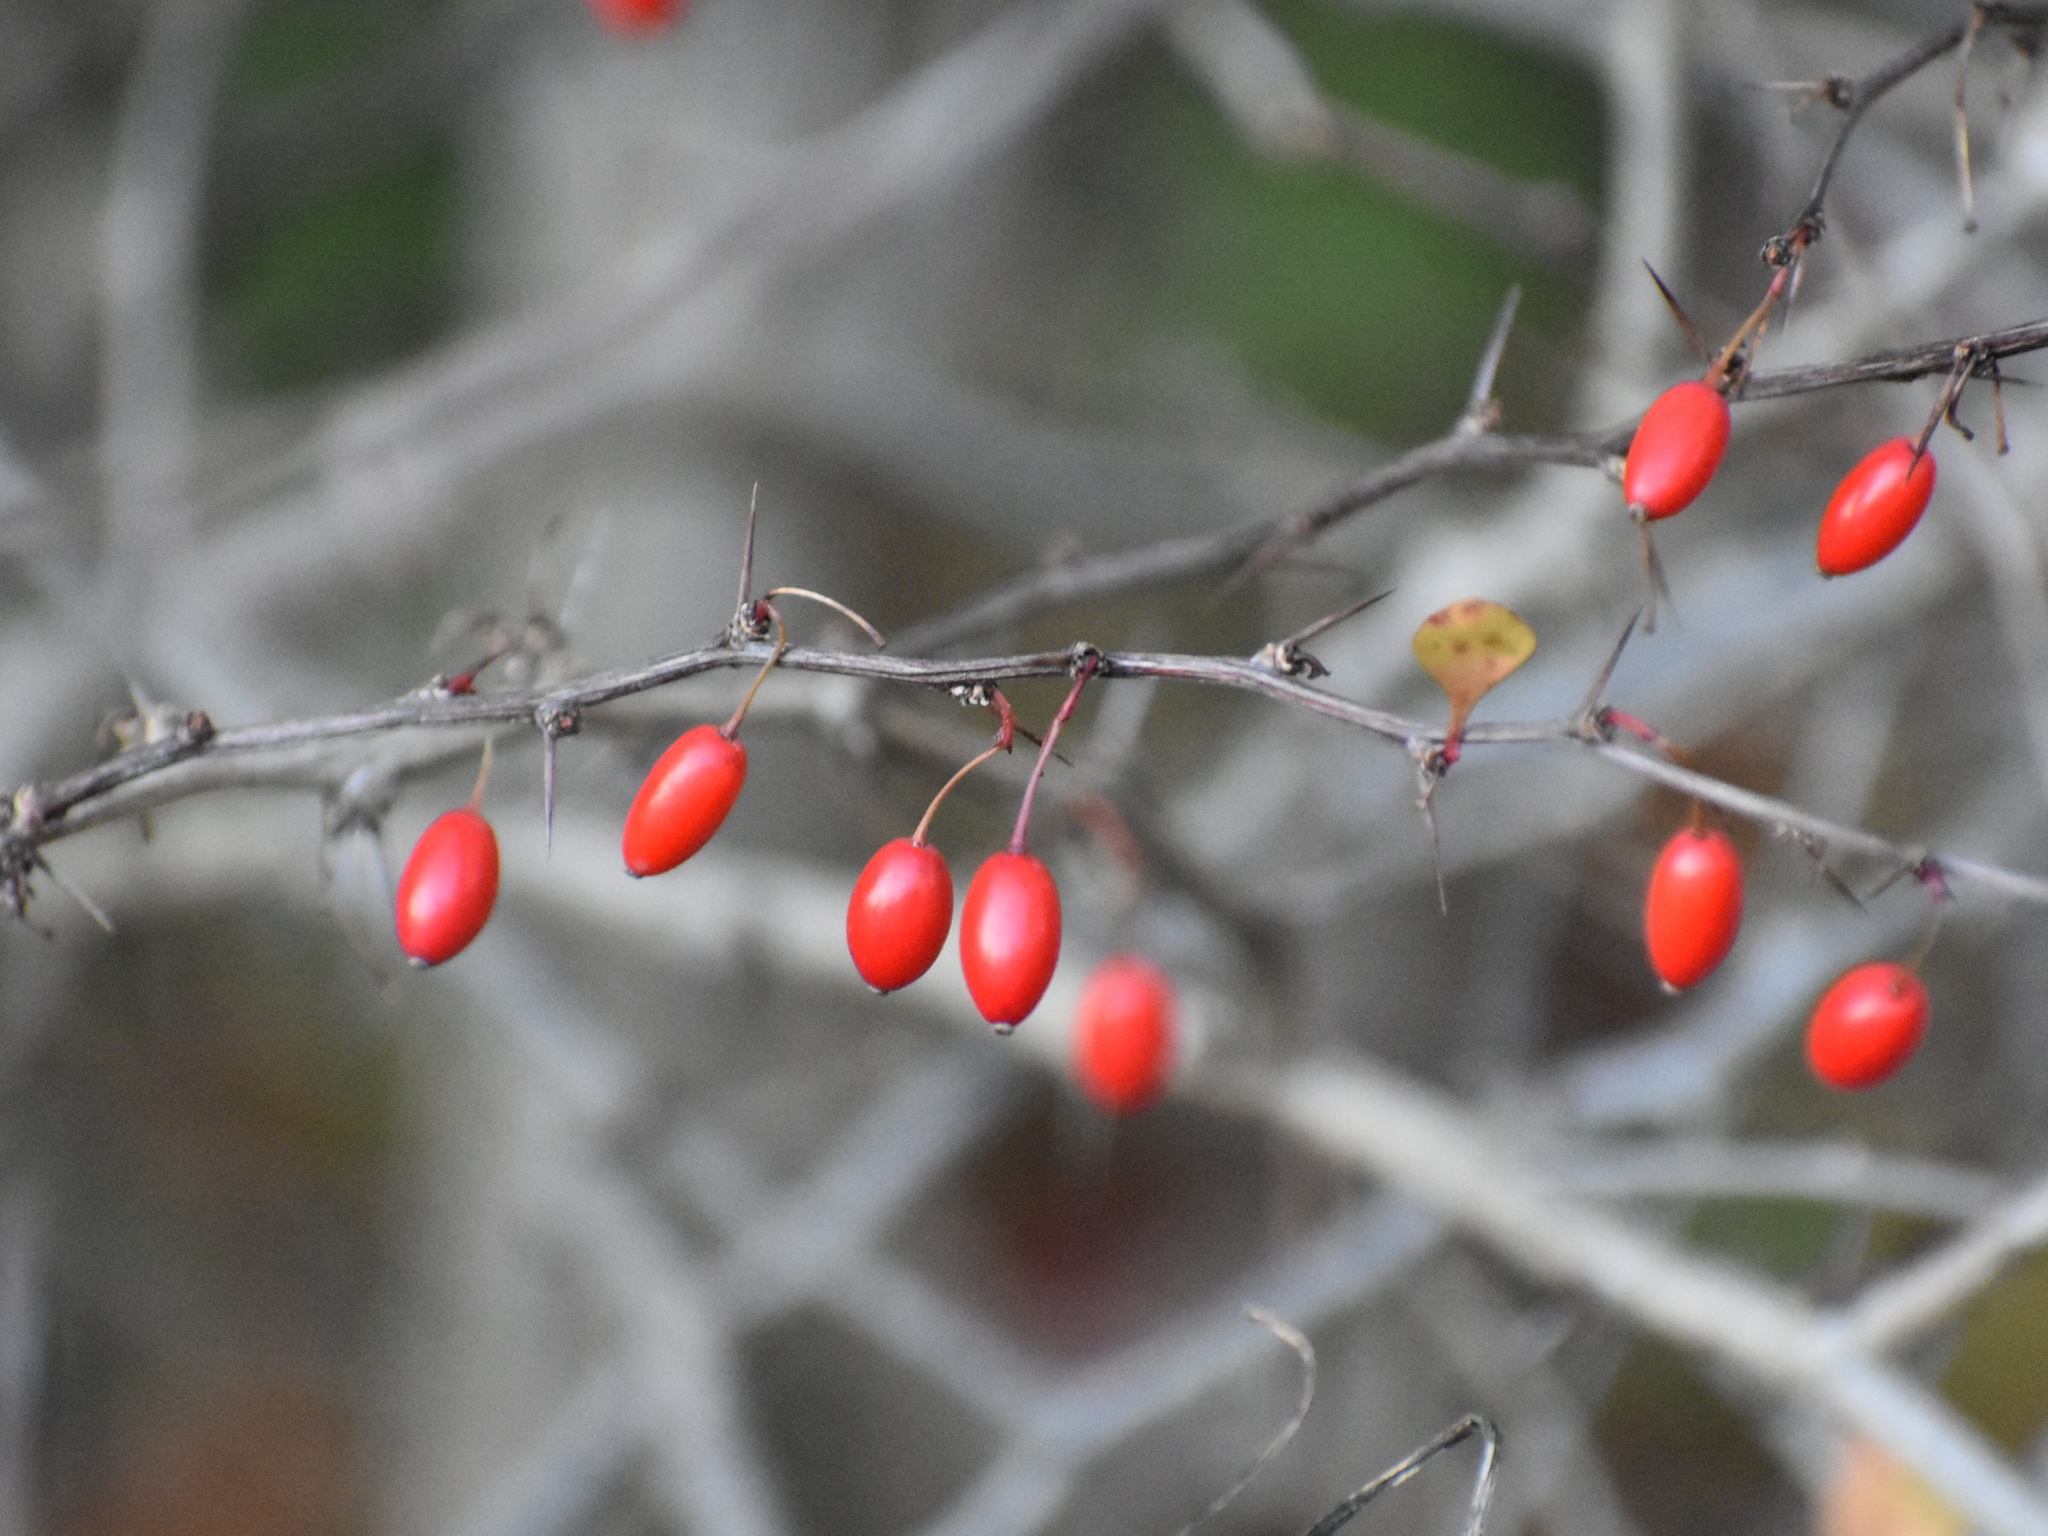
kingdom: Plantae
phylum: Tracheophyta
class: Magnoliopsida
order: Ranunculales
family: Berberidaceae
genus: Berberis
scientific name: Berberis thunbergii
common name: Japanese barberry
